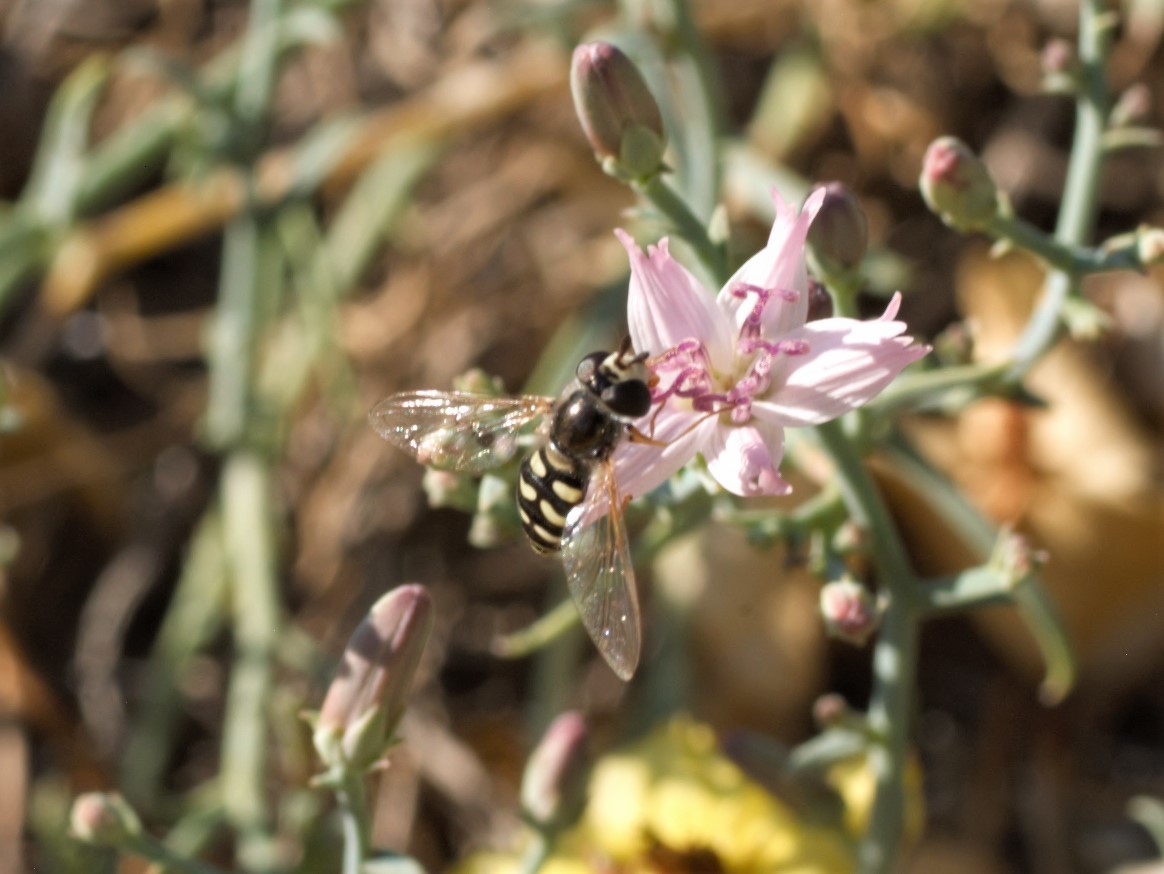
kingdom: Animalia
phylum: Arthropoda
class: Insecta
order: Diptera
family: Syrphidae
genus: Eupeodes
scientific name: Eupeodes volucris
